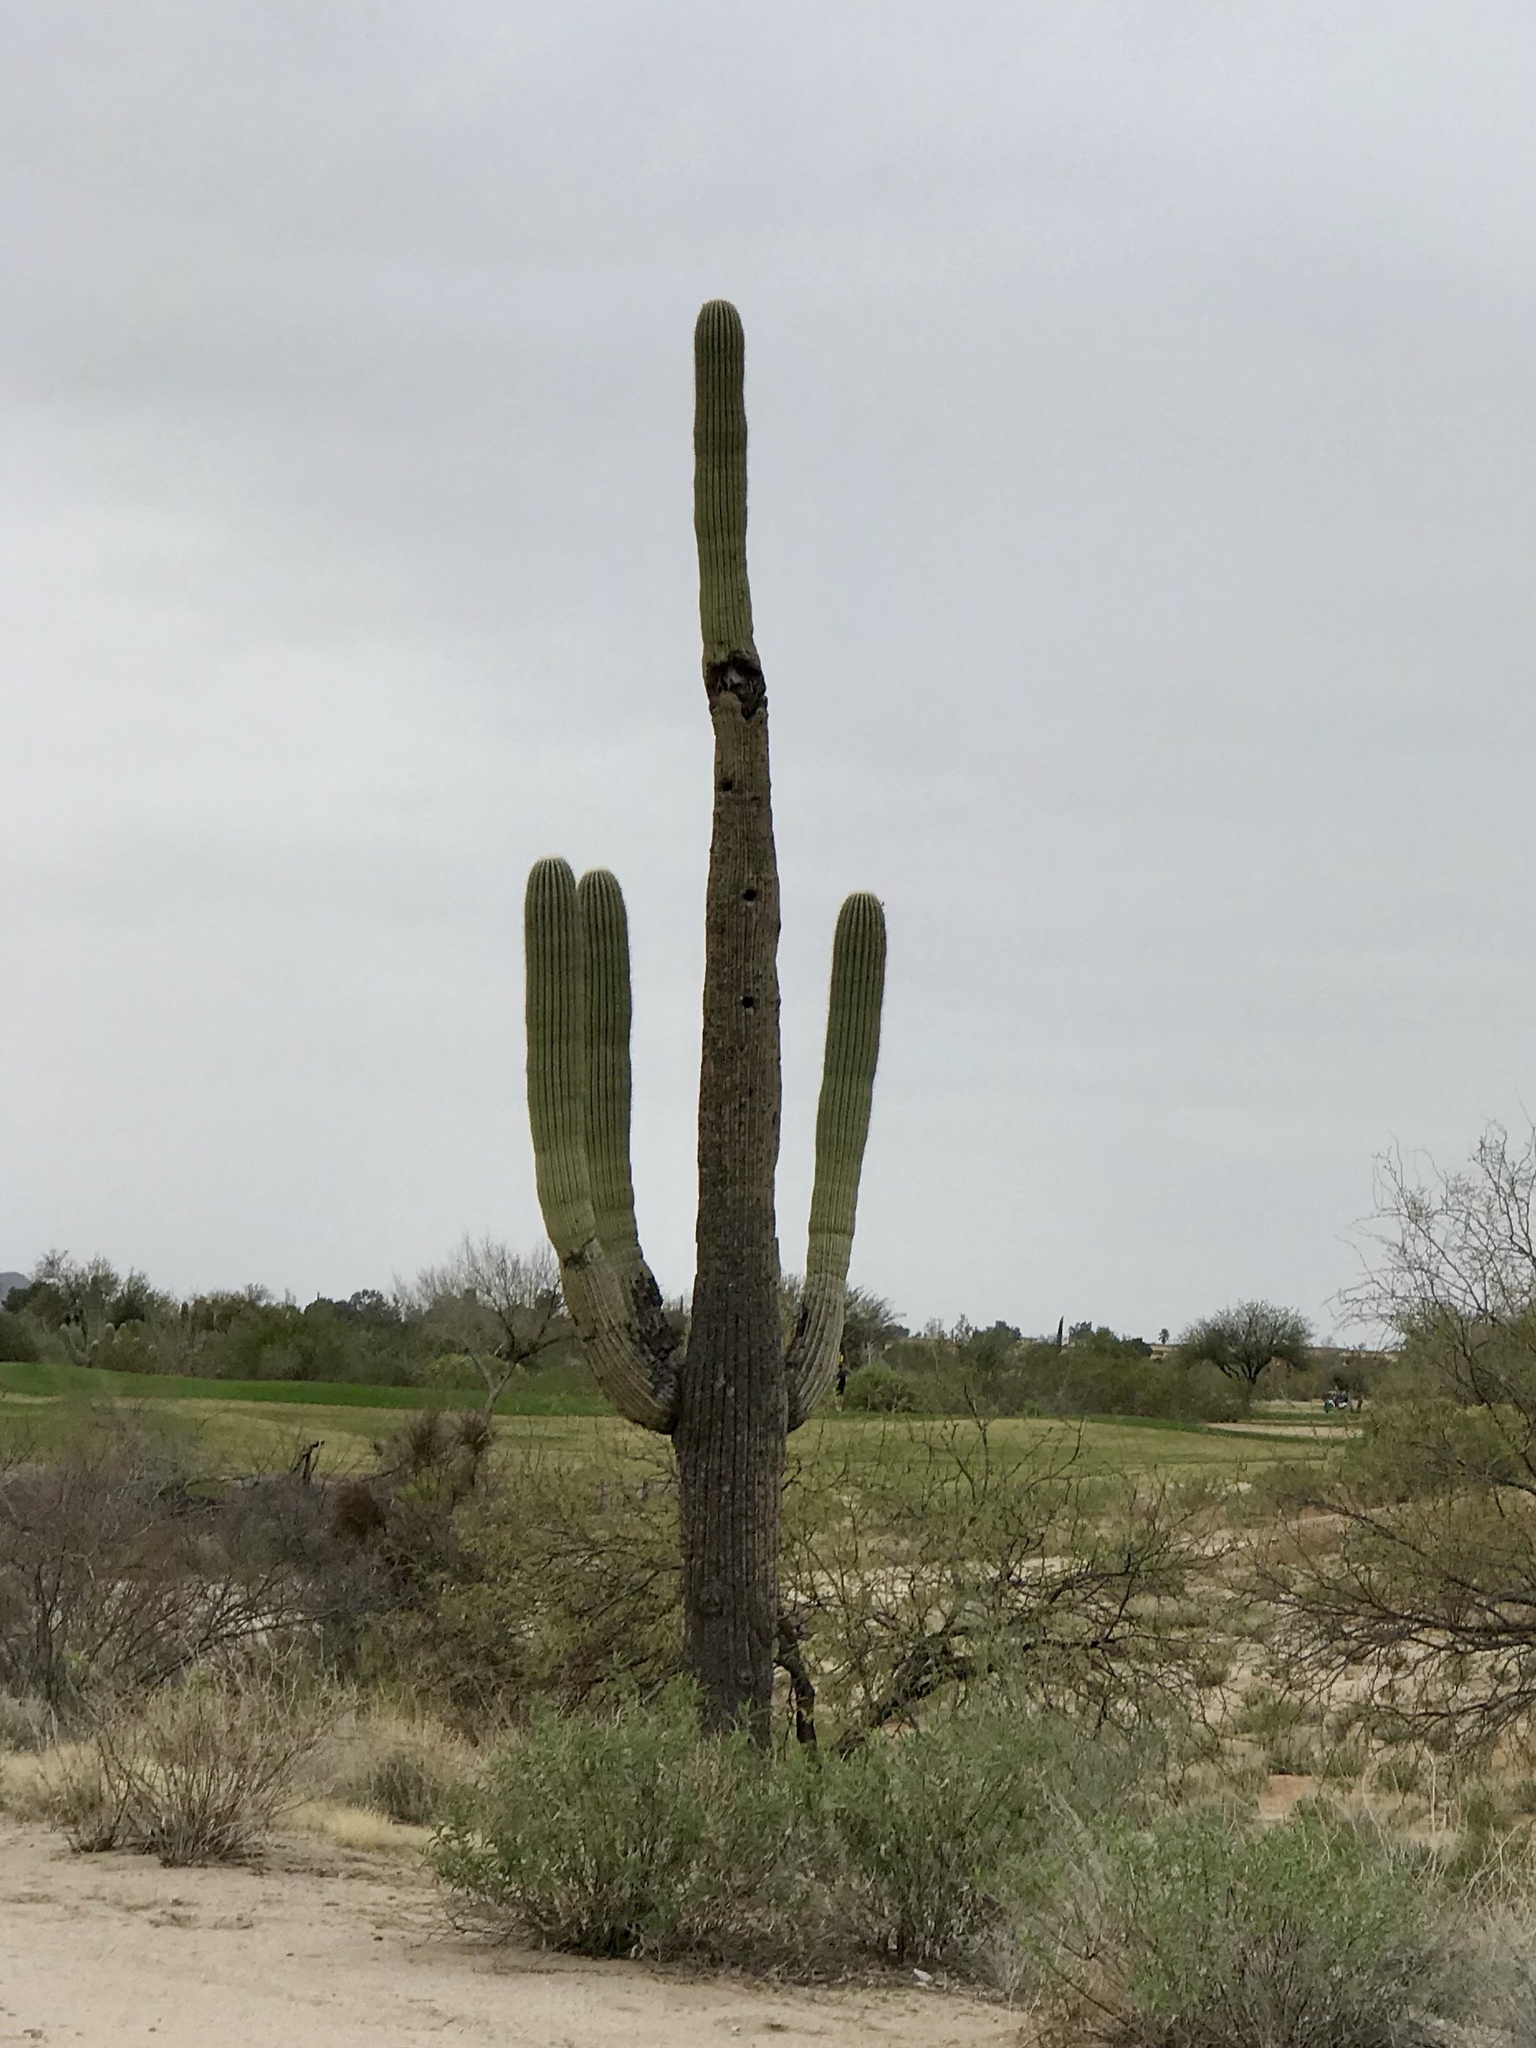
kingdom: Plantae
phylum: Tracheophyta
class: Magnoliopsida
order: Caryophyllales
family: Cactaceae
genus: Carnegiea
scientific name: Carnegiea gigantea
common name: Saguaro
